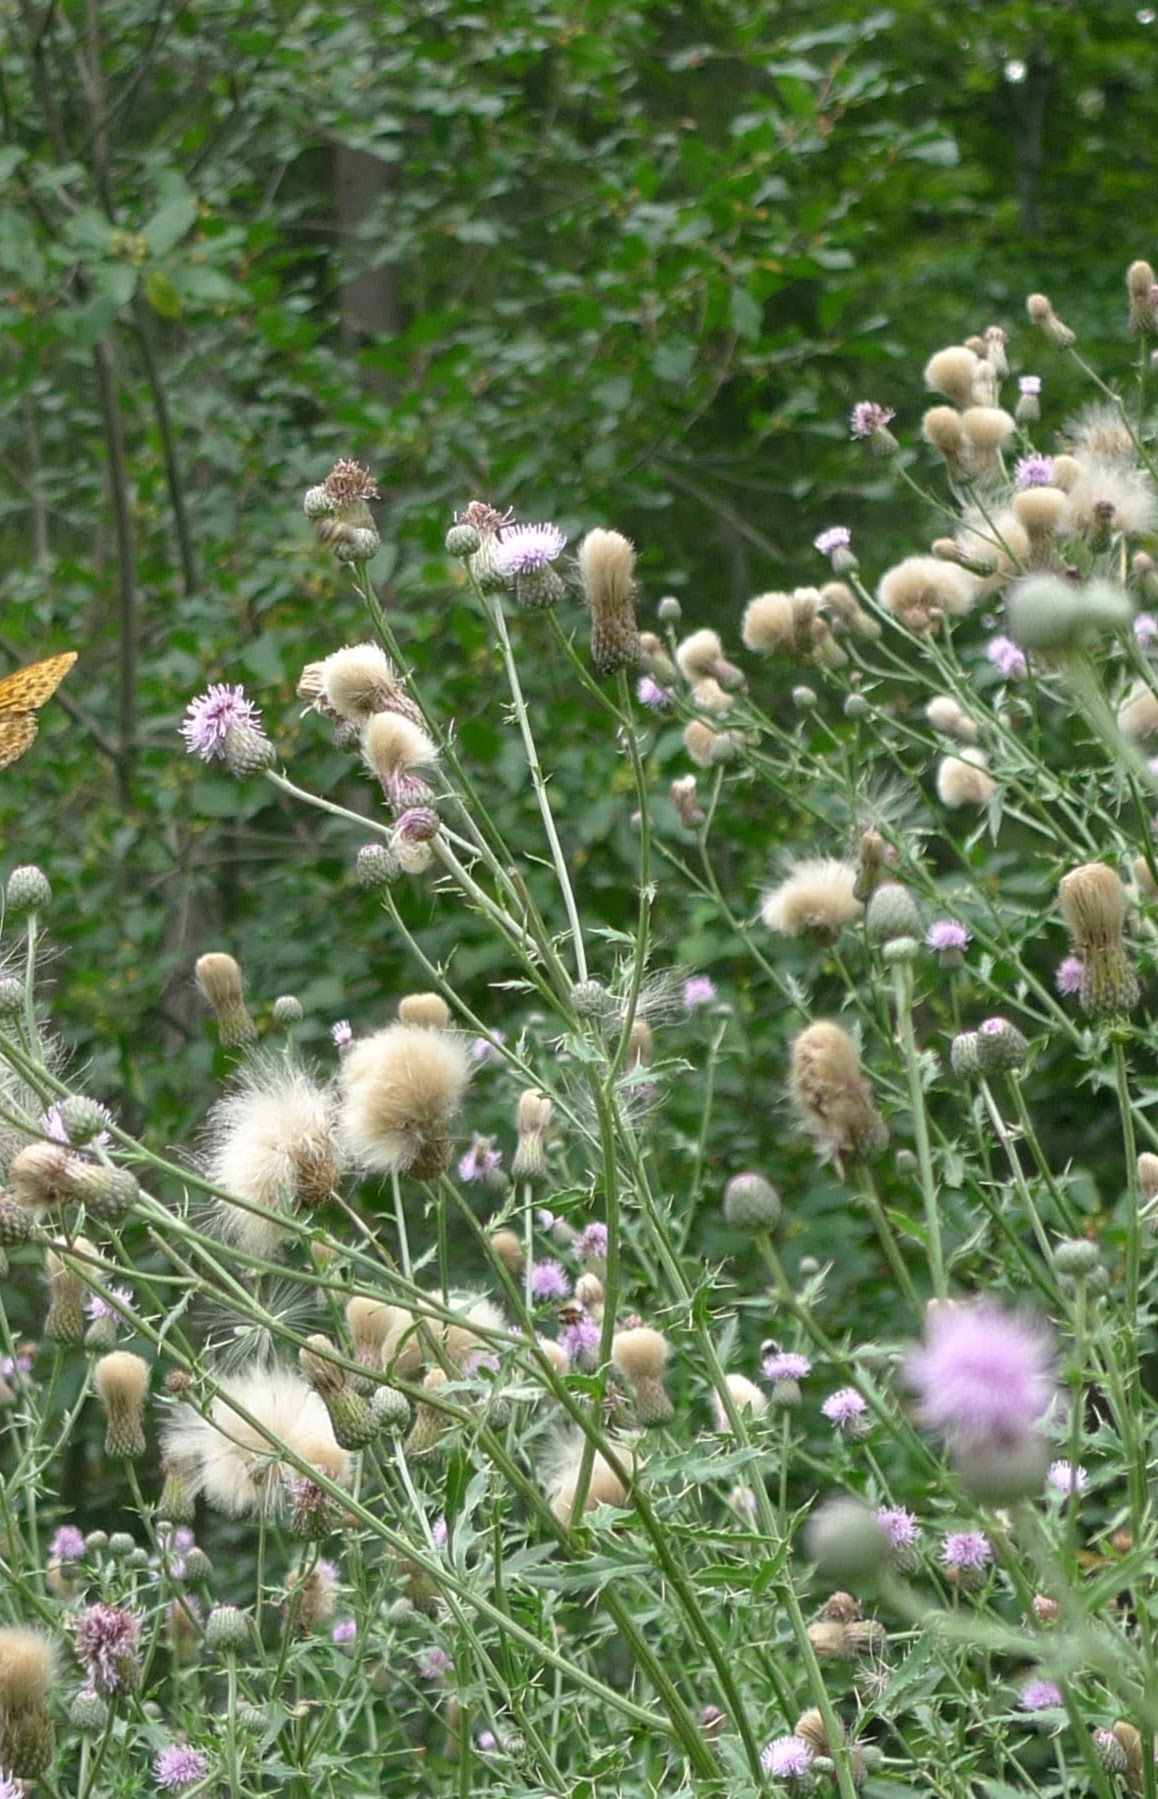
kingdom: Plantae
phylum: Tracheophyta
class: Magnoliopsida
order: Asterales
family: Asteraceae
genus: Cirsium
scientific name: Cirsium arvense
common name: Creeping thistle
